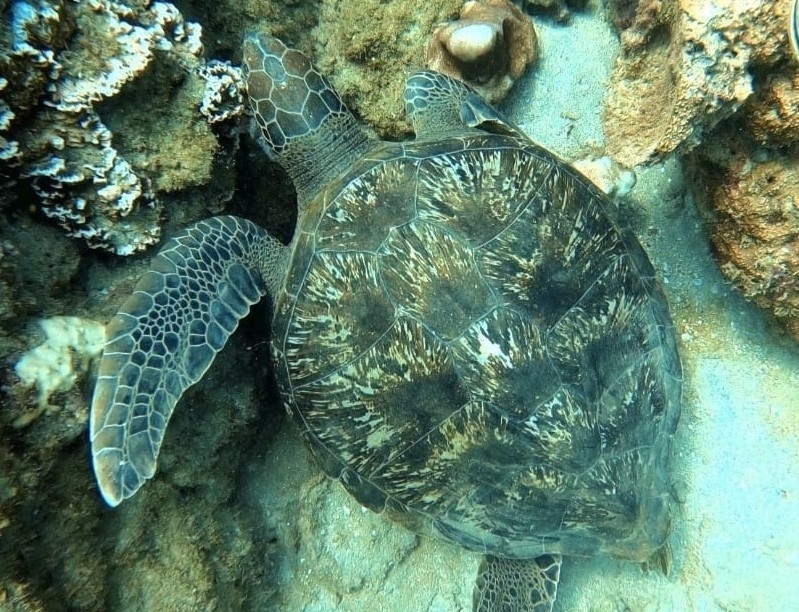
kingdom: Animalia
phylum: Chordata
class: Testudines
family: Cheloniidae
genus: Chelonia
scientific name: Chelonia mydas
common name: Green turtle
